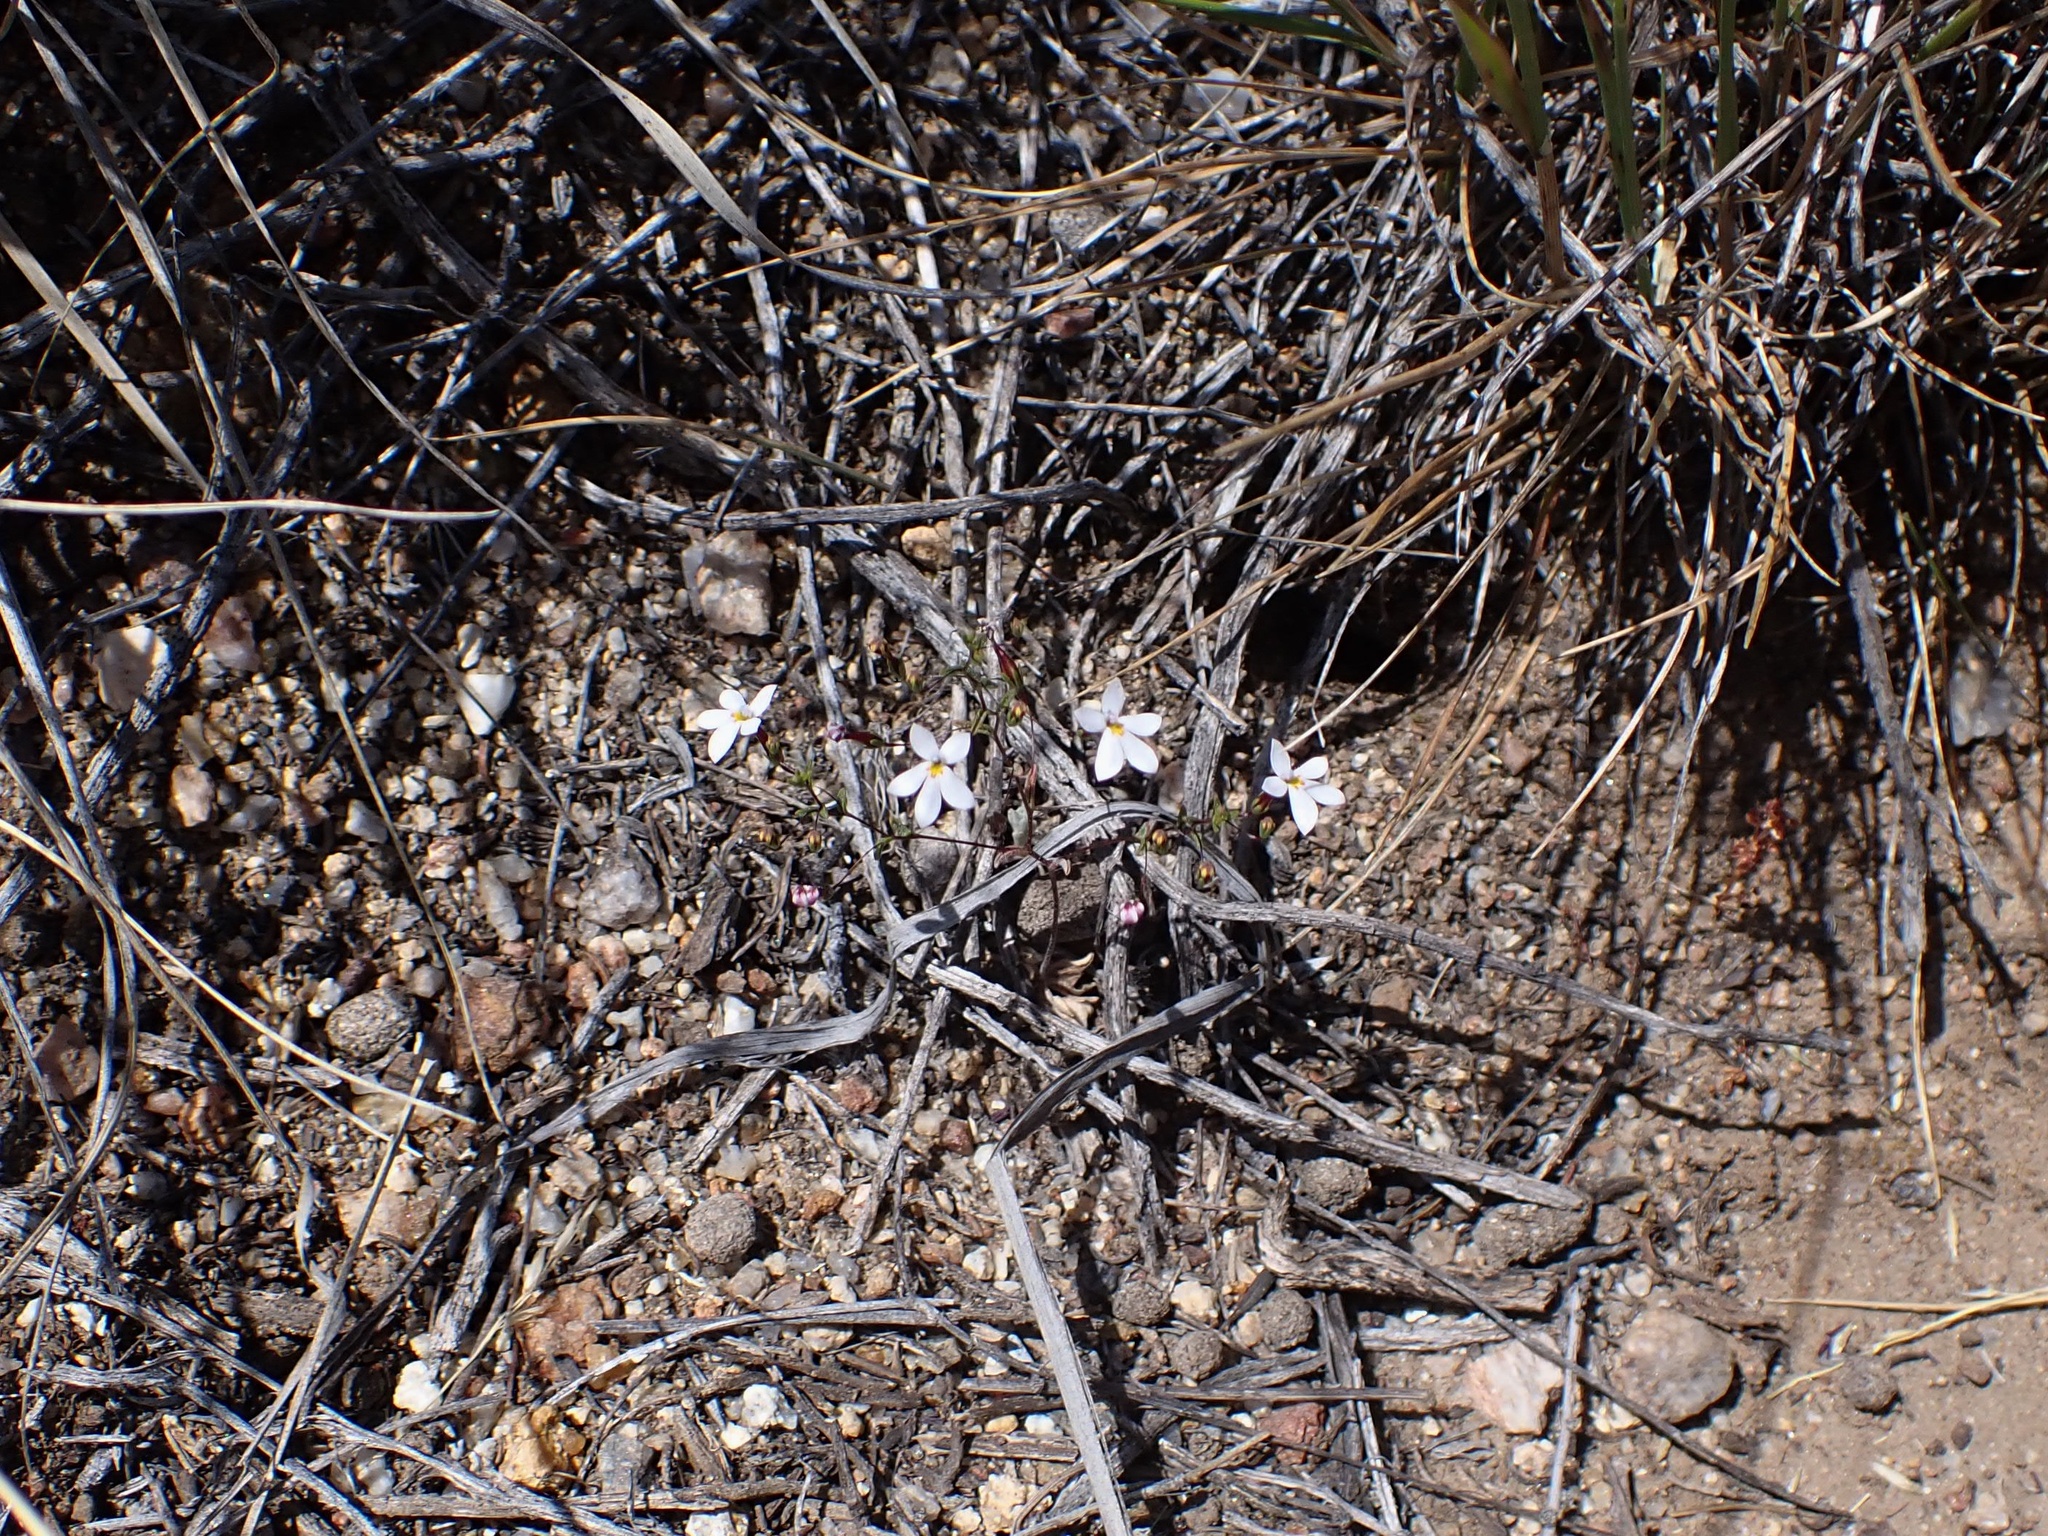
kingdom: Plantae
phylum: Tracheophyta
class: Magnoliopsida
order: Asterales
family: Campanulaceae
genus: Nemacladus
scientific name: Nemacladus longiflorus
